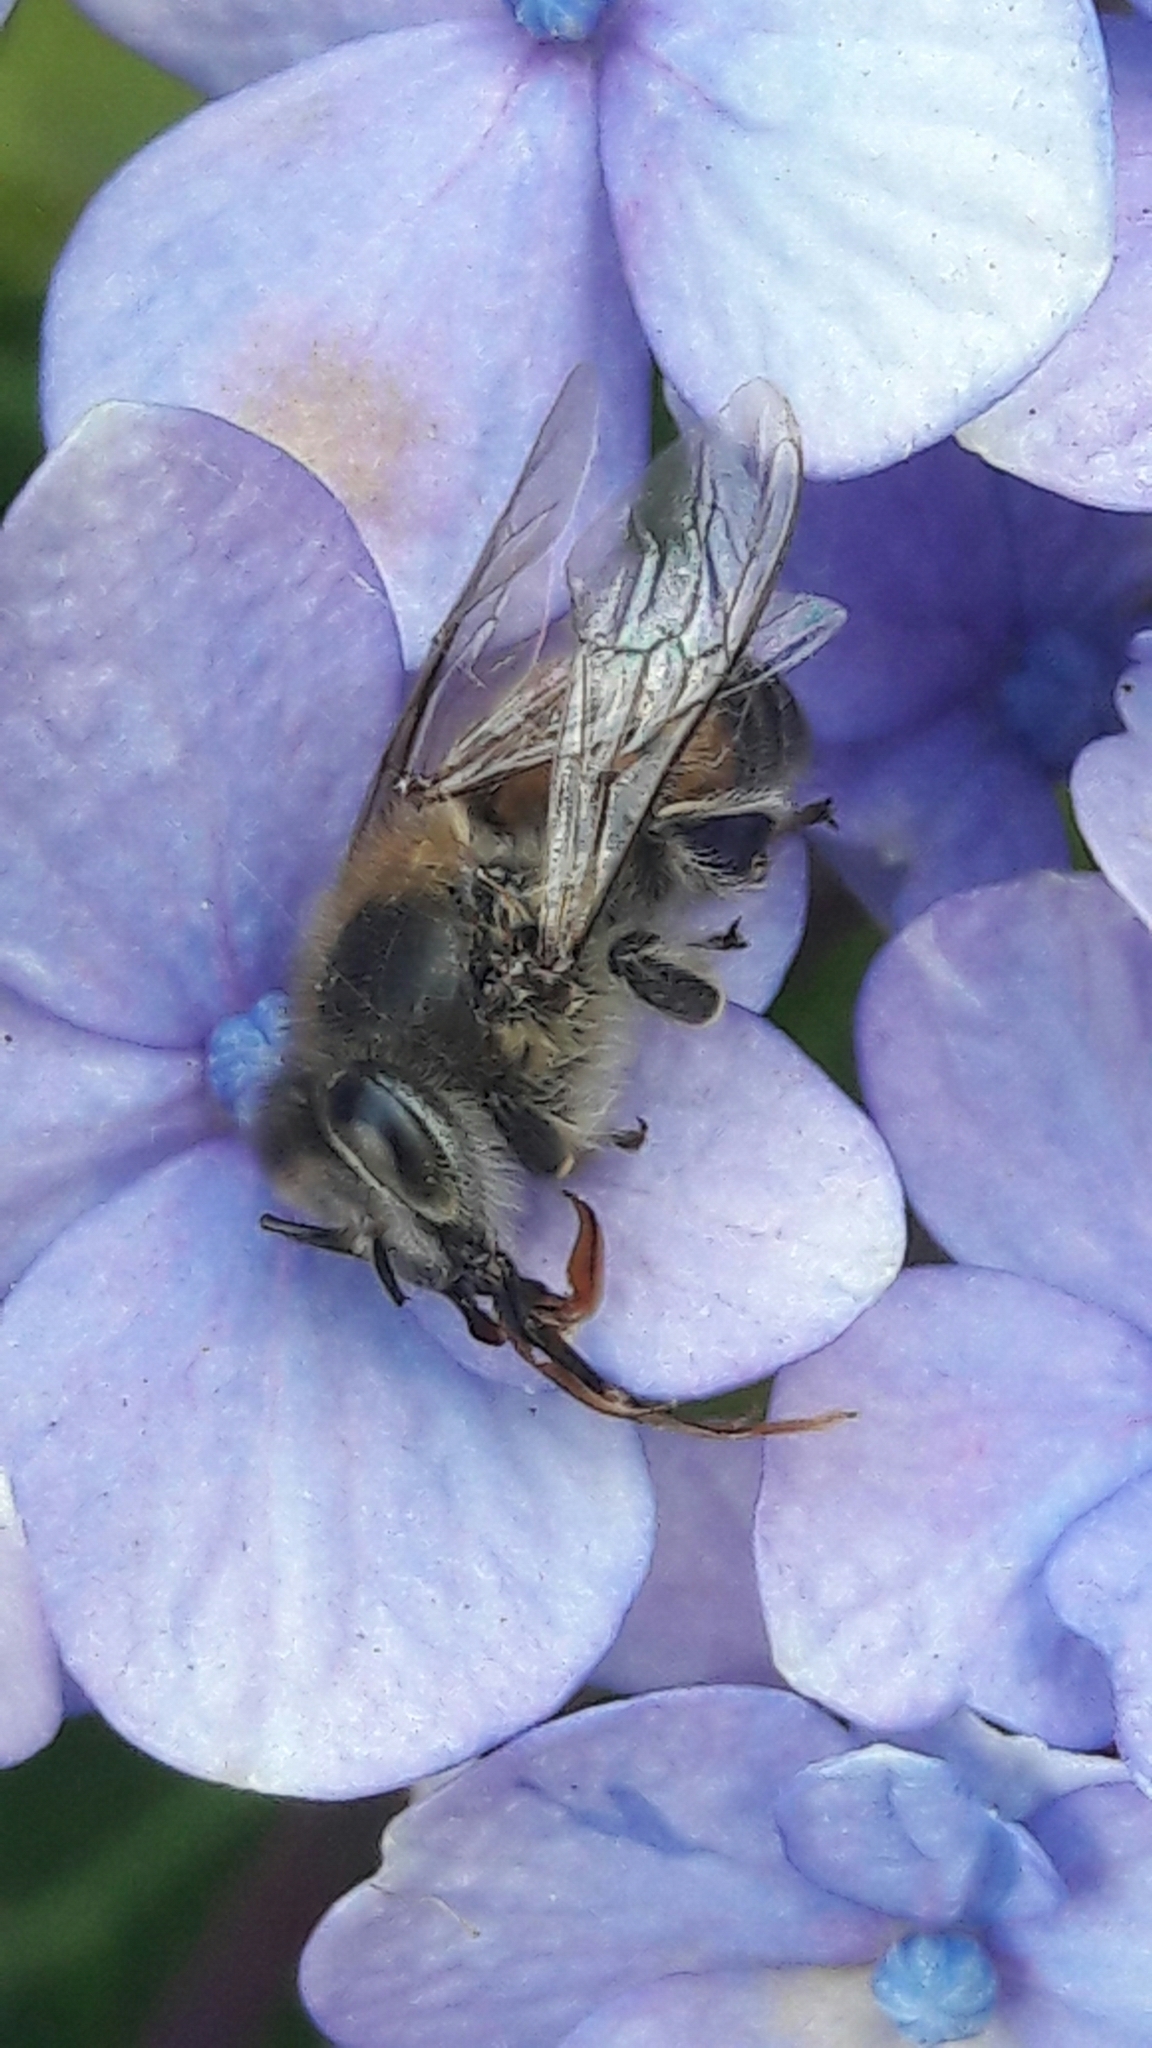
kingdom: Animalia
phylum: Arthropoda
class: Insecta
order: Hymenoptera
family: Apidae
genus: Apis
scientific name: Apis mellifera
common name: Honey bee
